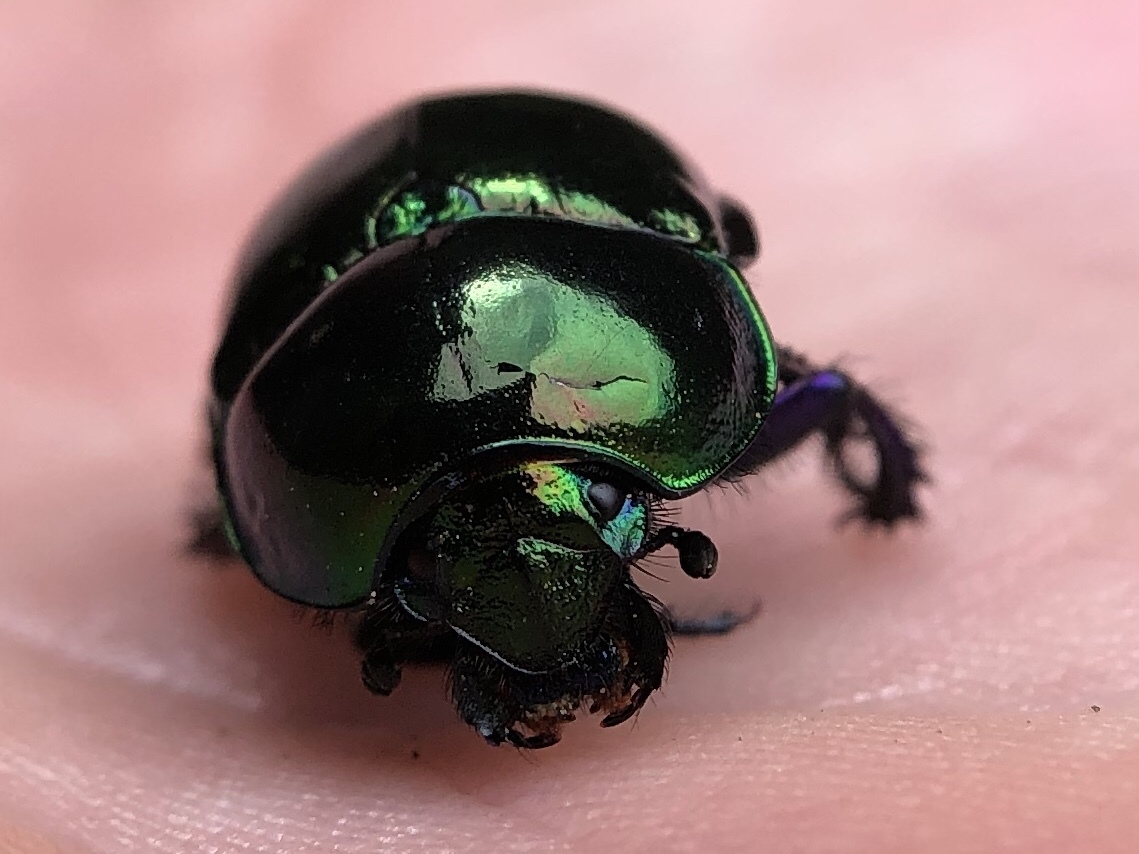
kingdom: Animalia
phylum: Arthropoda
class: Insecta
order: Coleoptera
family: Geotrupidae
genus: Trypocopris
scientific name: Trypocopris pyrenaeus
